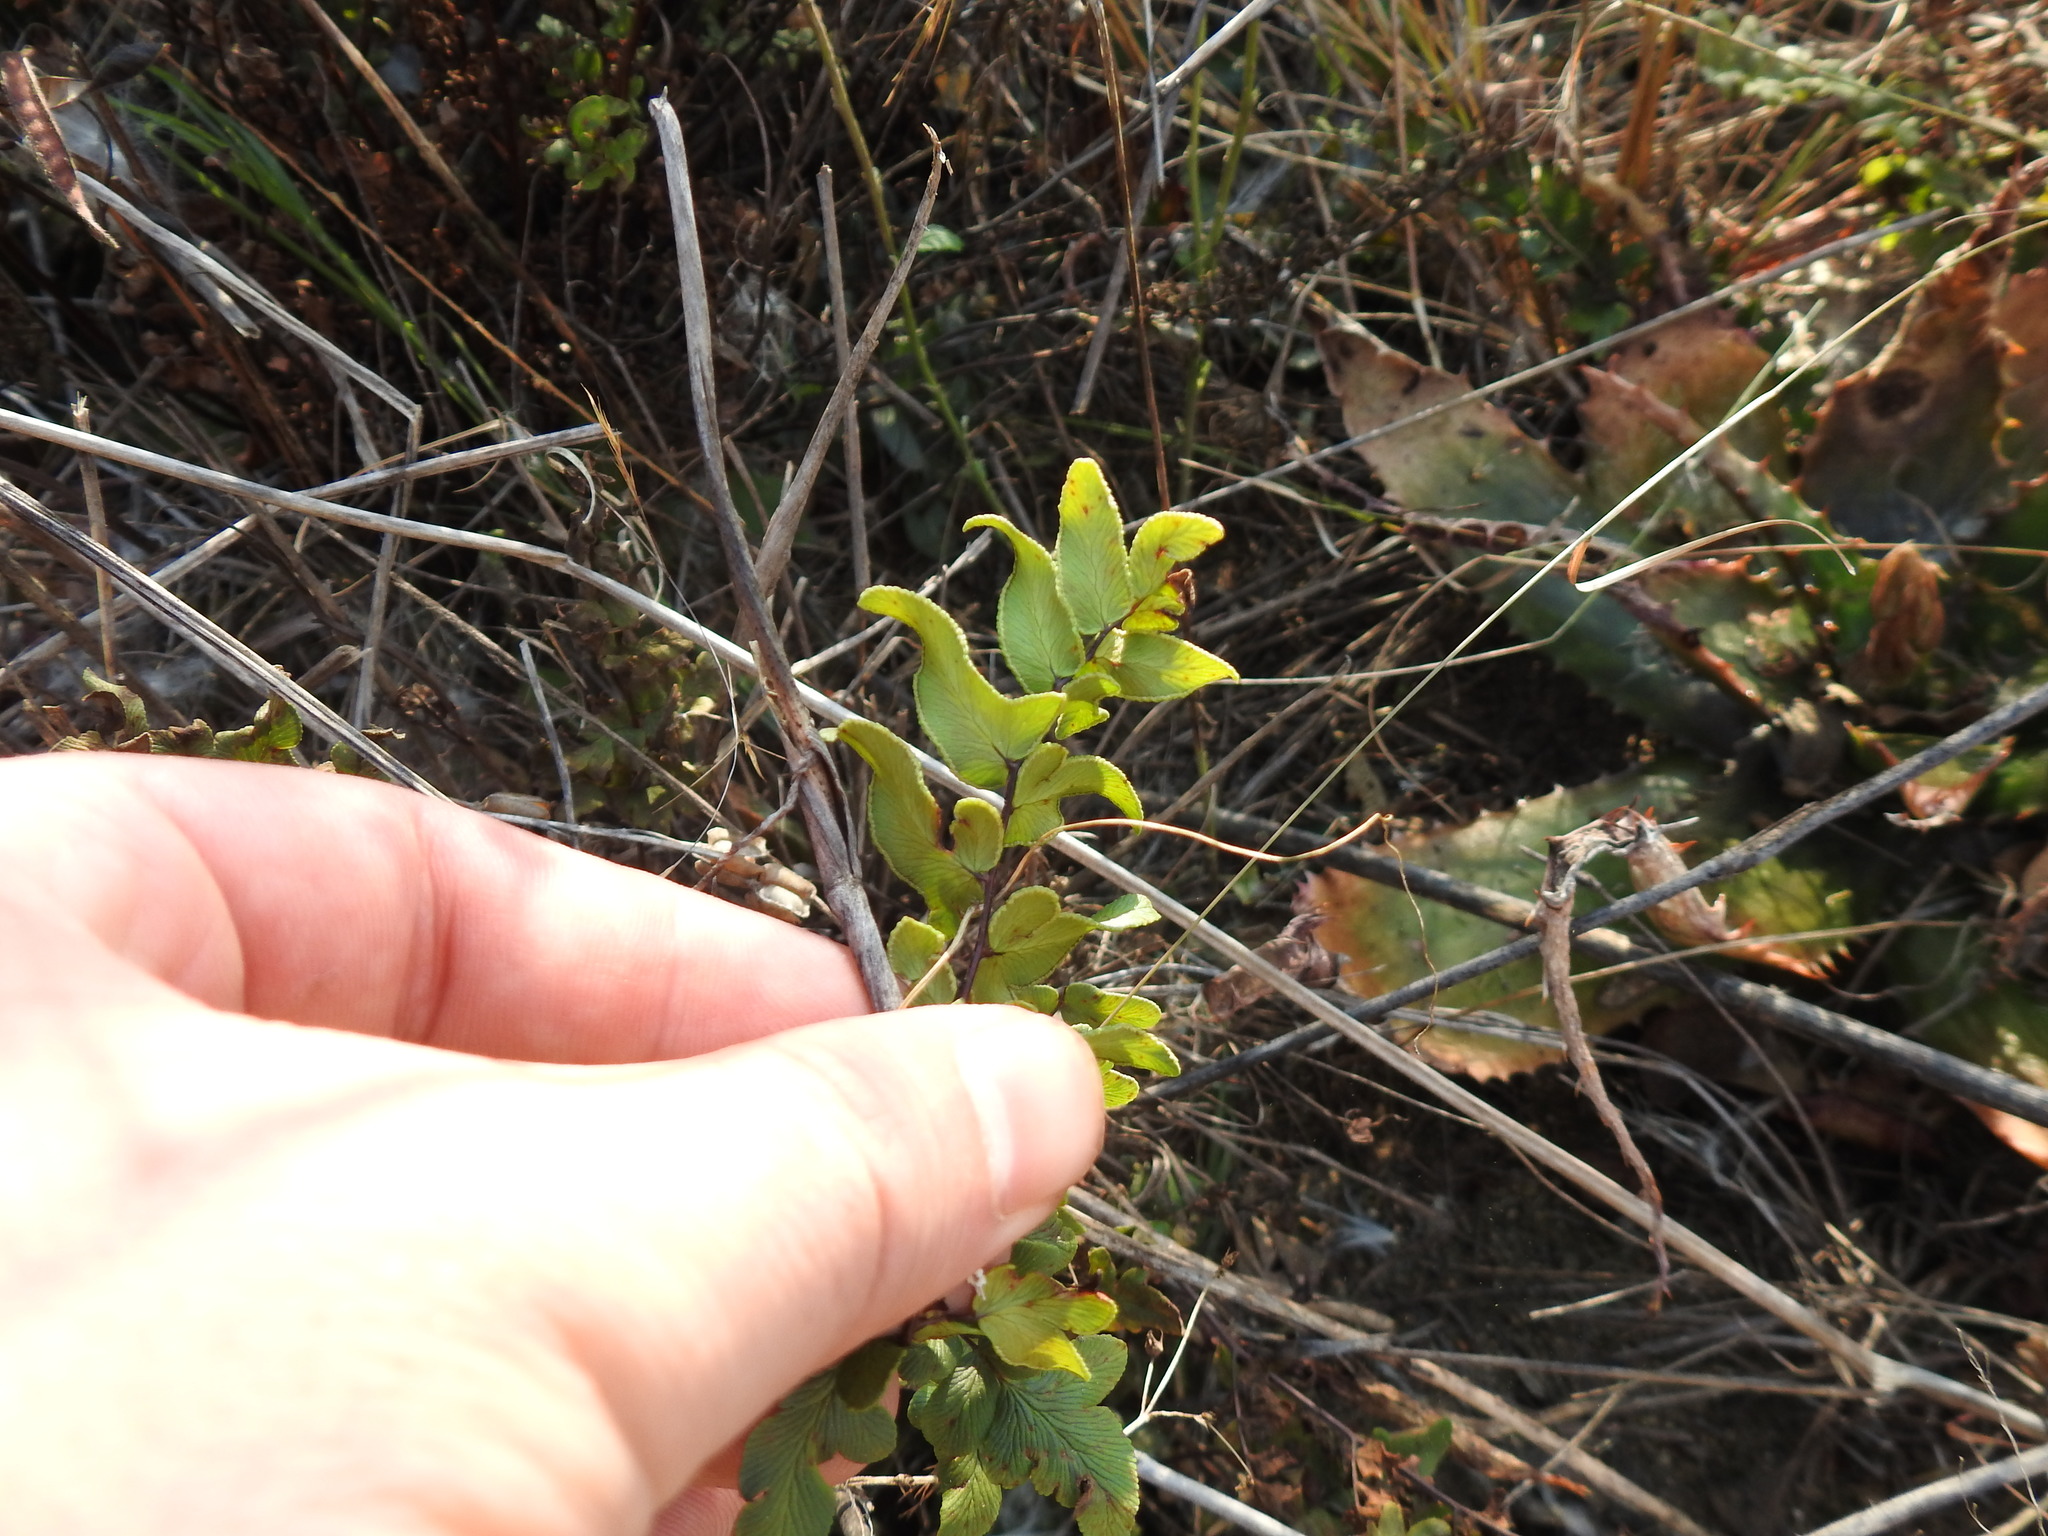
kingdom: Plantae
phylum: Tracheophyta
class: Polypodiopsida
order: Polypodiales
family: Pteridaceae
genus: Cheilanthes
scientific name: Cheilanthes viridis
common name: Green cliffbrake
